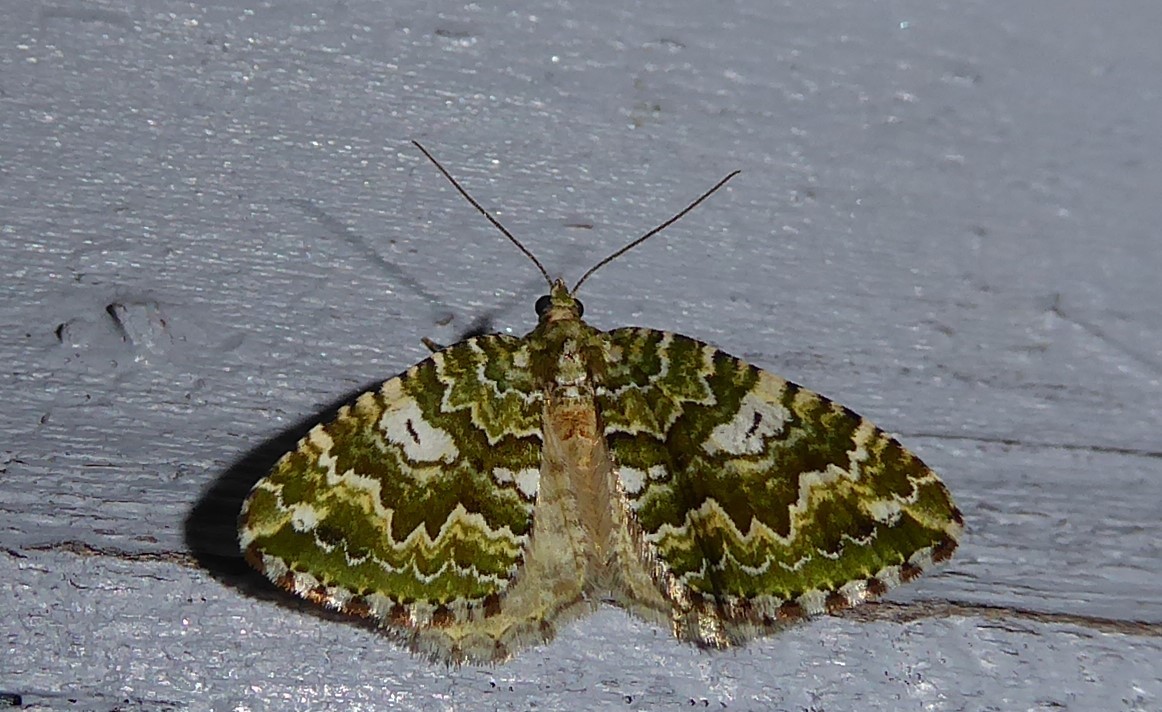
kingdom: Animalia
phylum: Arthropoda
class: Insecta
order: Lepidoptera
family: Geometridae
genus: Asaphodes
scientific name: Asaphodes beata
